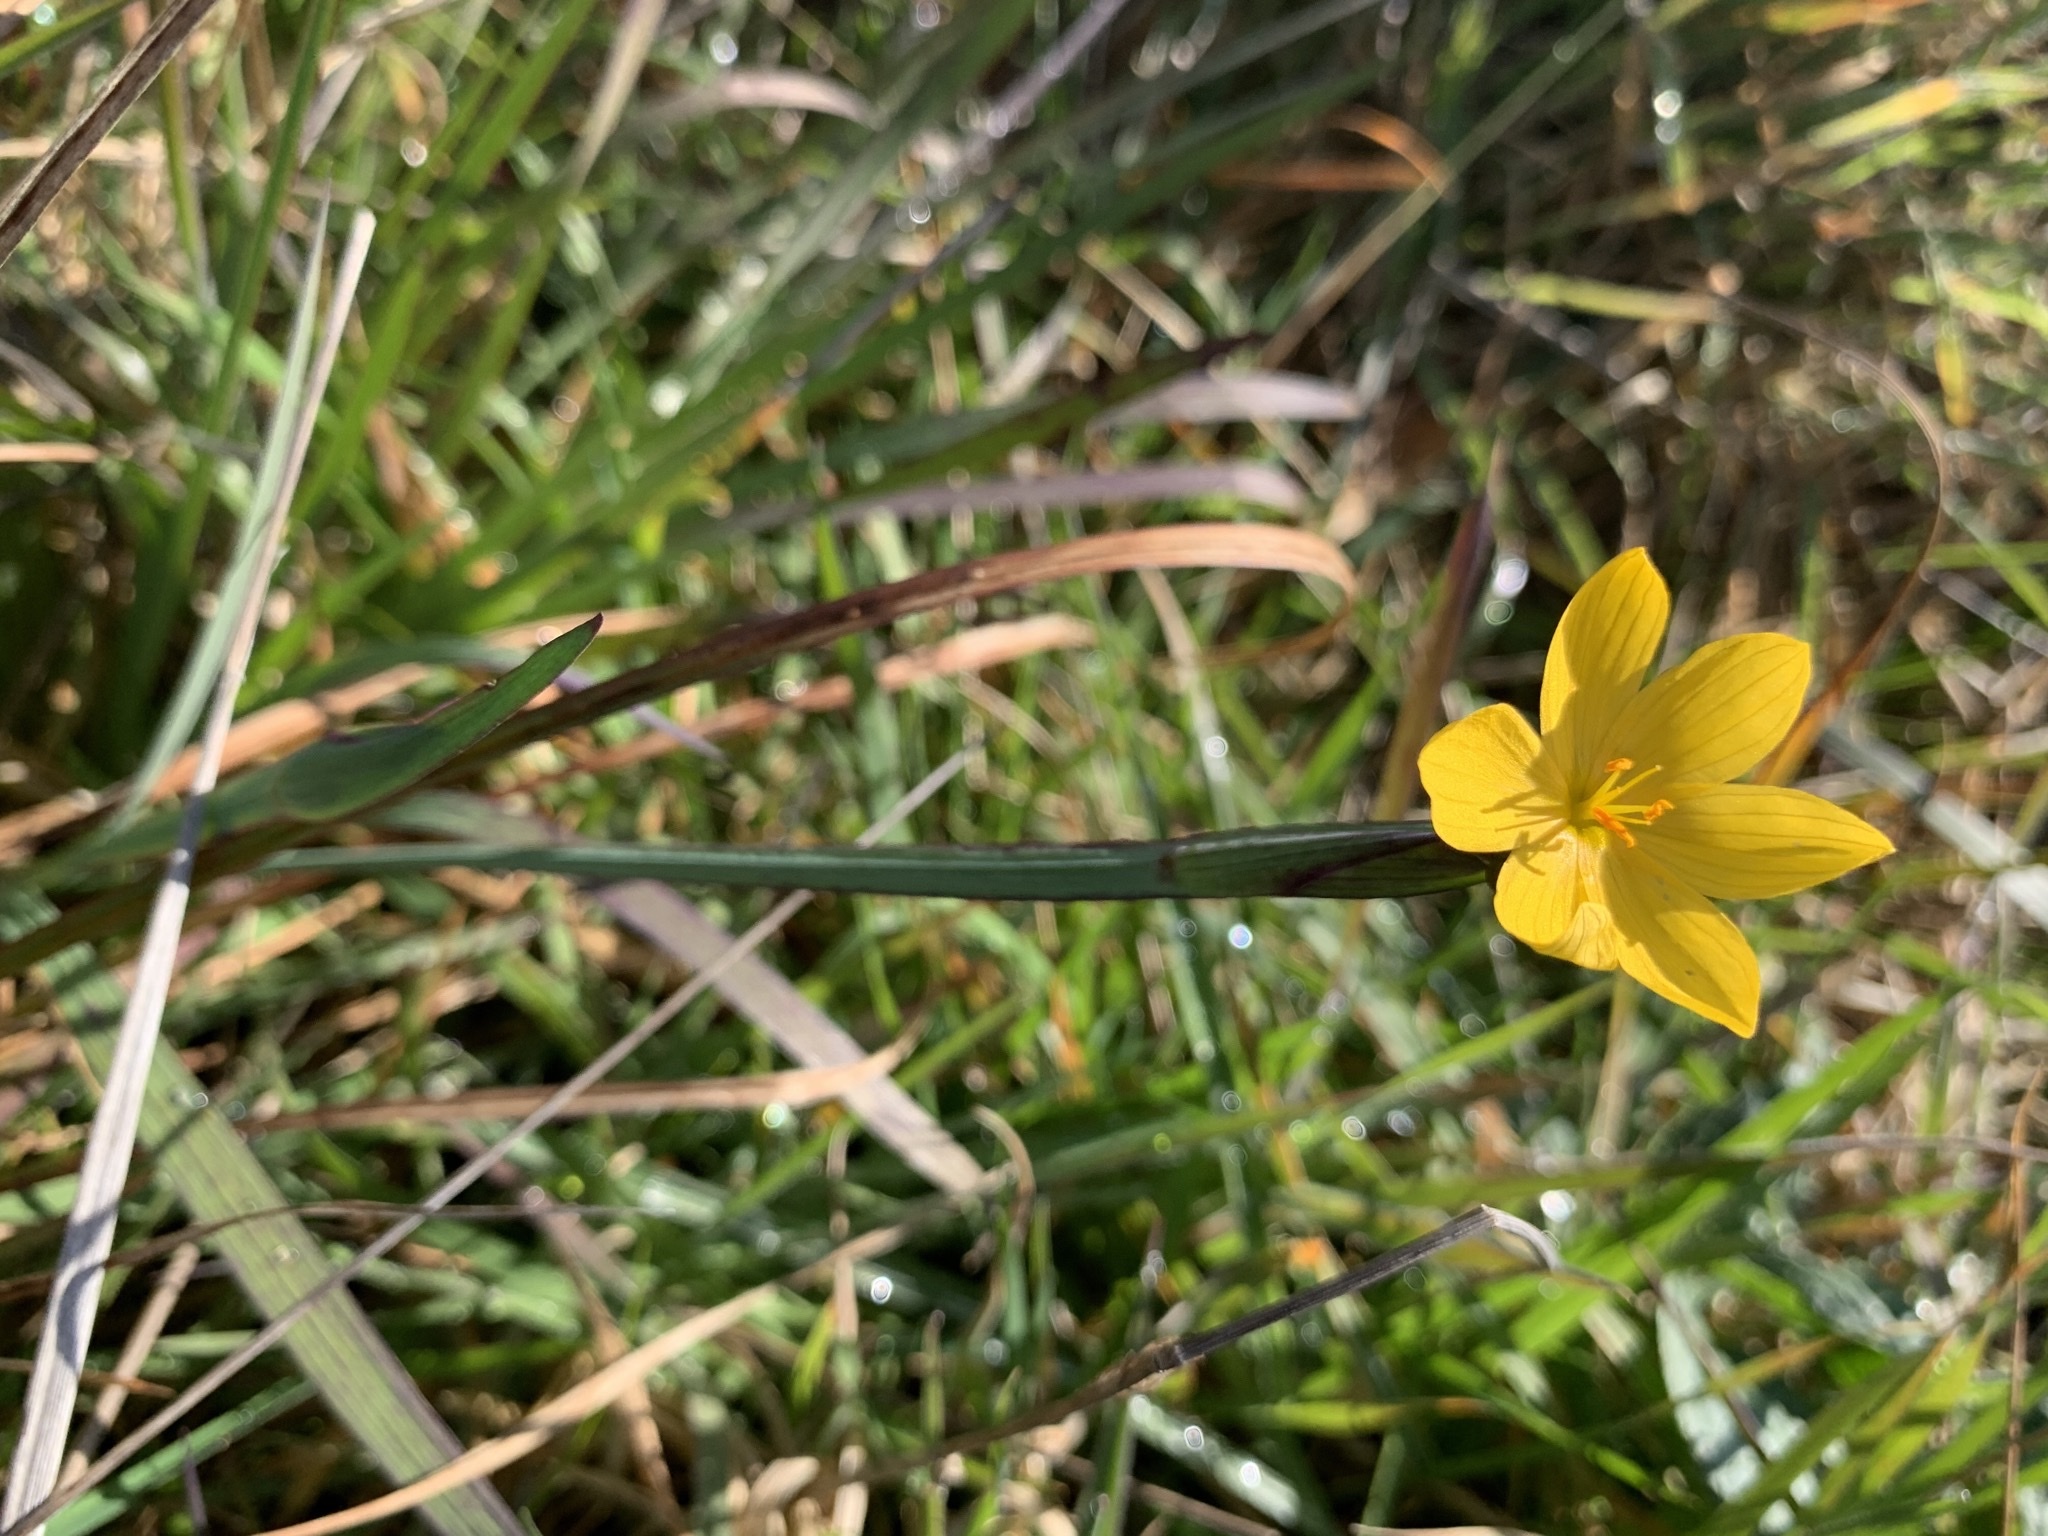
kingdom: Plantae
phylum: Tracheophyta
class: Liliopsida
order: Asparagales
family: Iridaceae
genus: Sisyrinchium
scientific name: Sisyrinchium californicum
